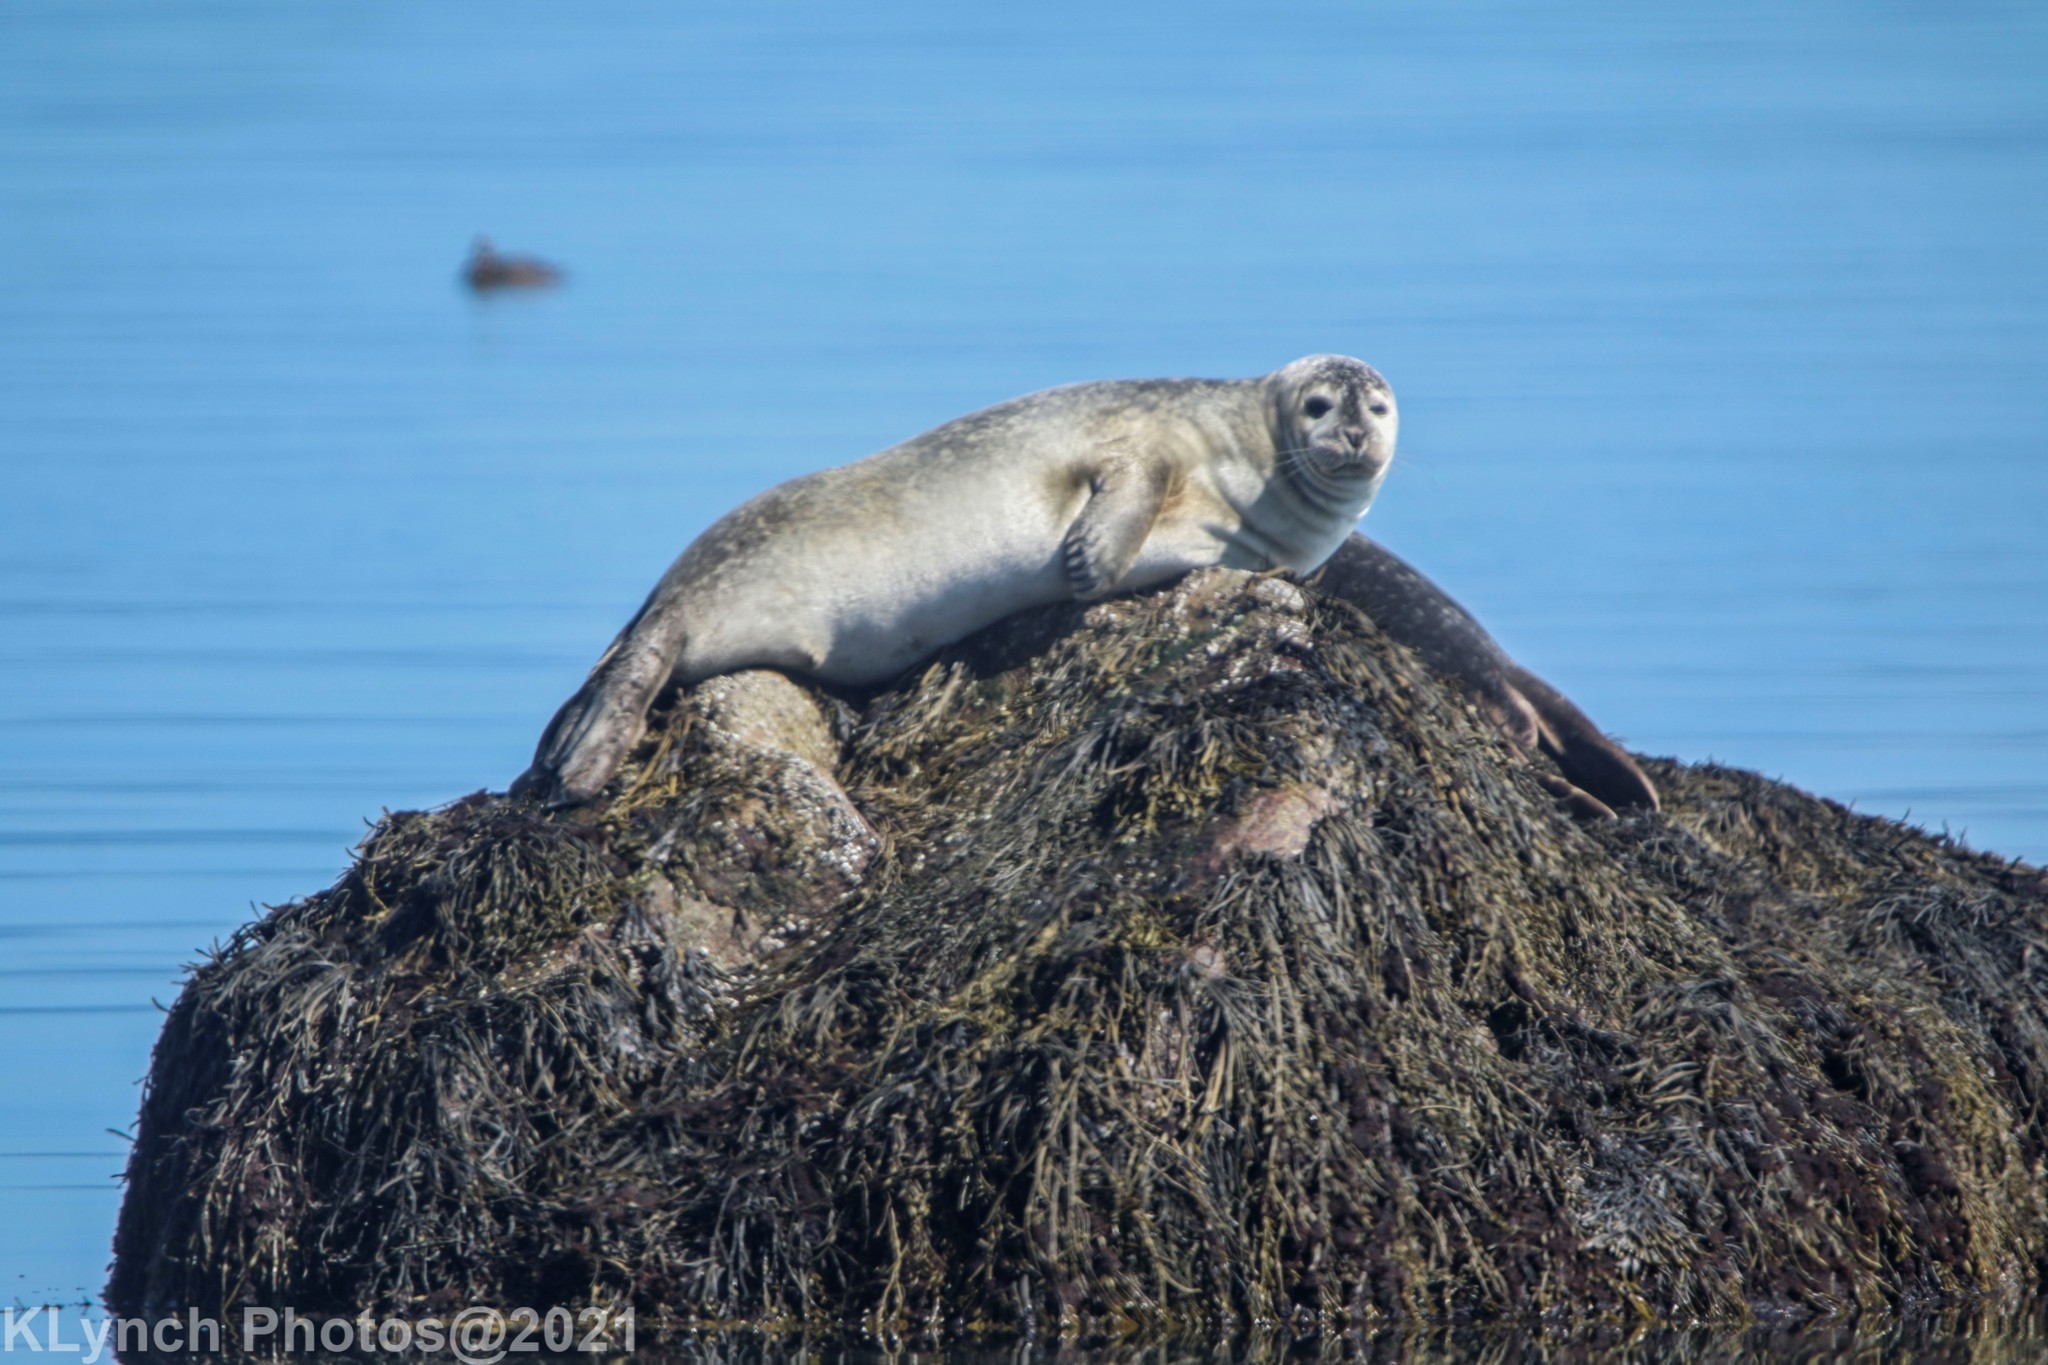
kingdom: Animalia
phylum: Chordata
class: Mammalia
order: Carnivora
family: Phocidae
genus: Phoca
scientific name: Phoca vitulina
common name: Harbor seal
